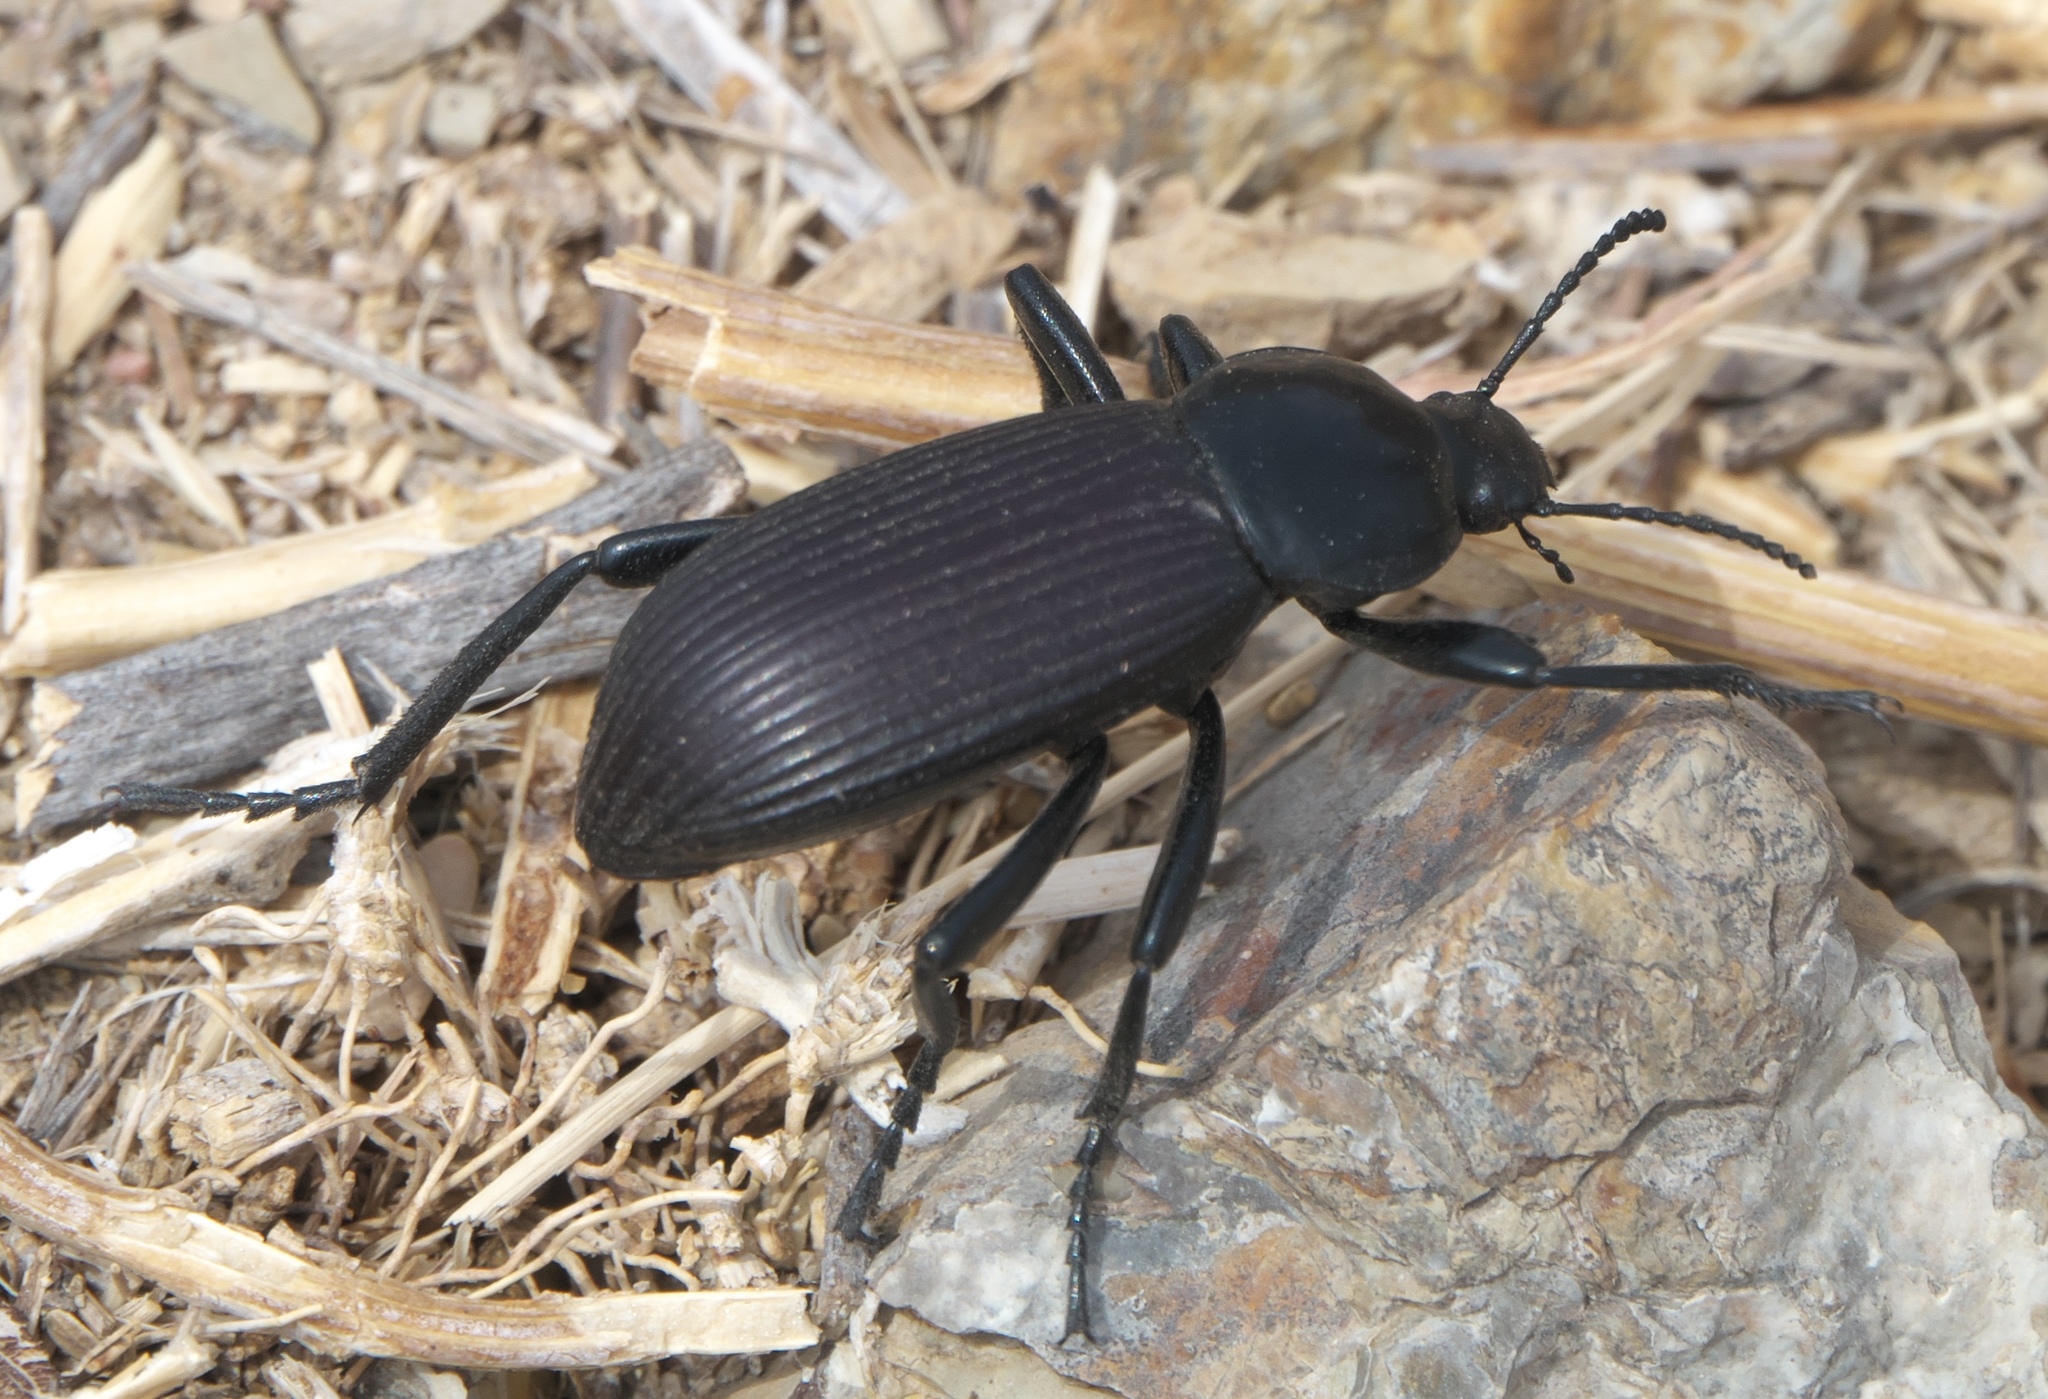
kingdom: Animalia
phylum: Arthropoda
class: Insecta
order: Coleoptera
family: Tenebrionidae
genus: Eleodes
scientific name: Eleodes obscura
